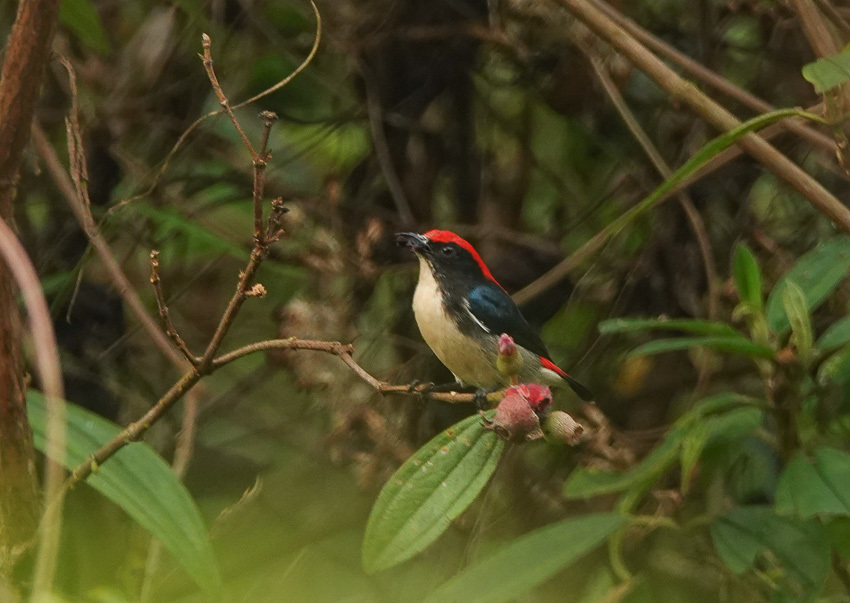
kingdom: Animalia
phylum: Chordata
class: Aves
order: Passeriformes
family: Dicaeidae
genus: Dicaeum
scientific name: Dicaeum cruentatum
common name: Scarlet-backed flowerpecker
